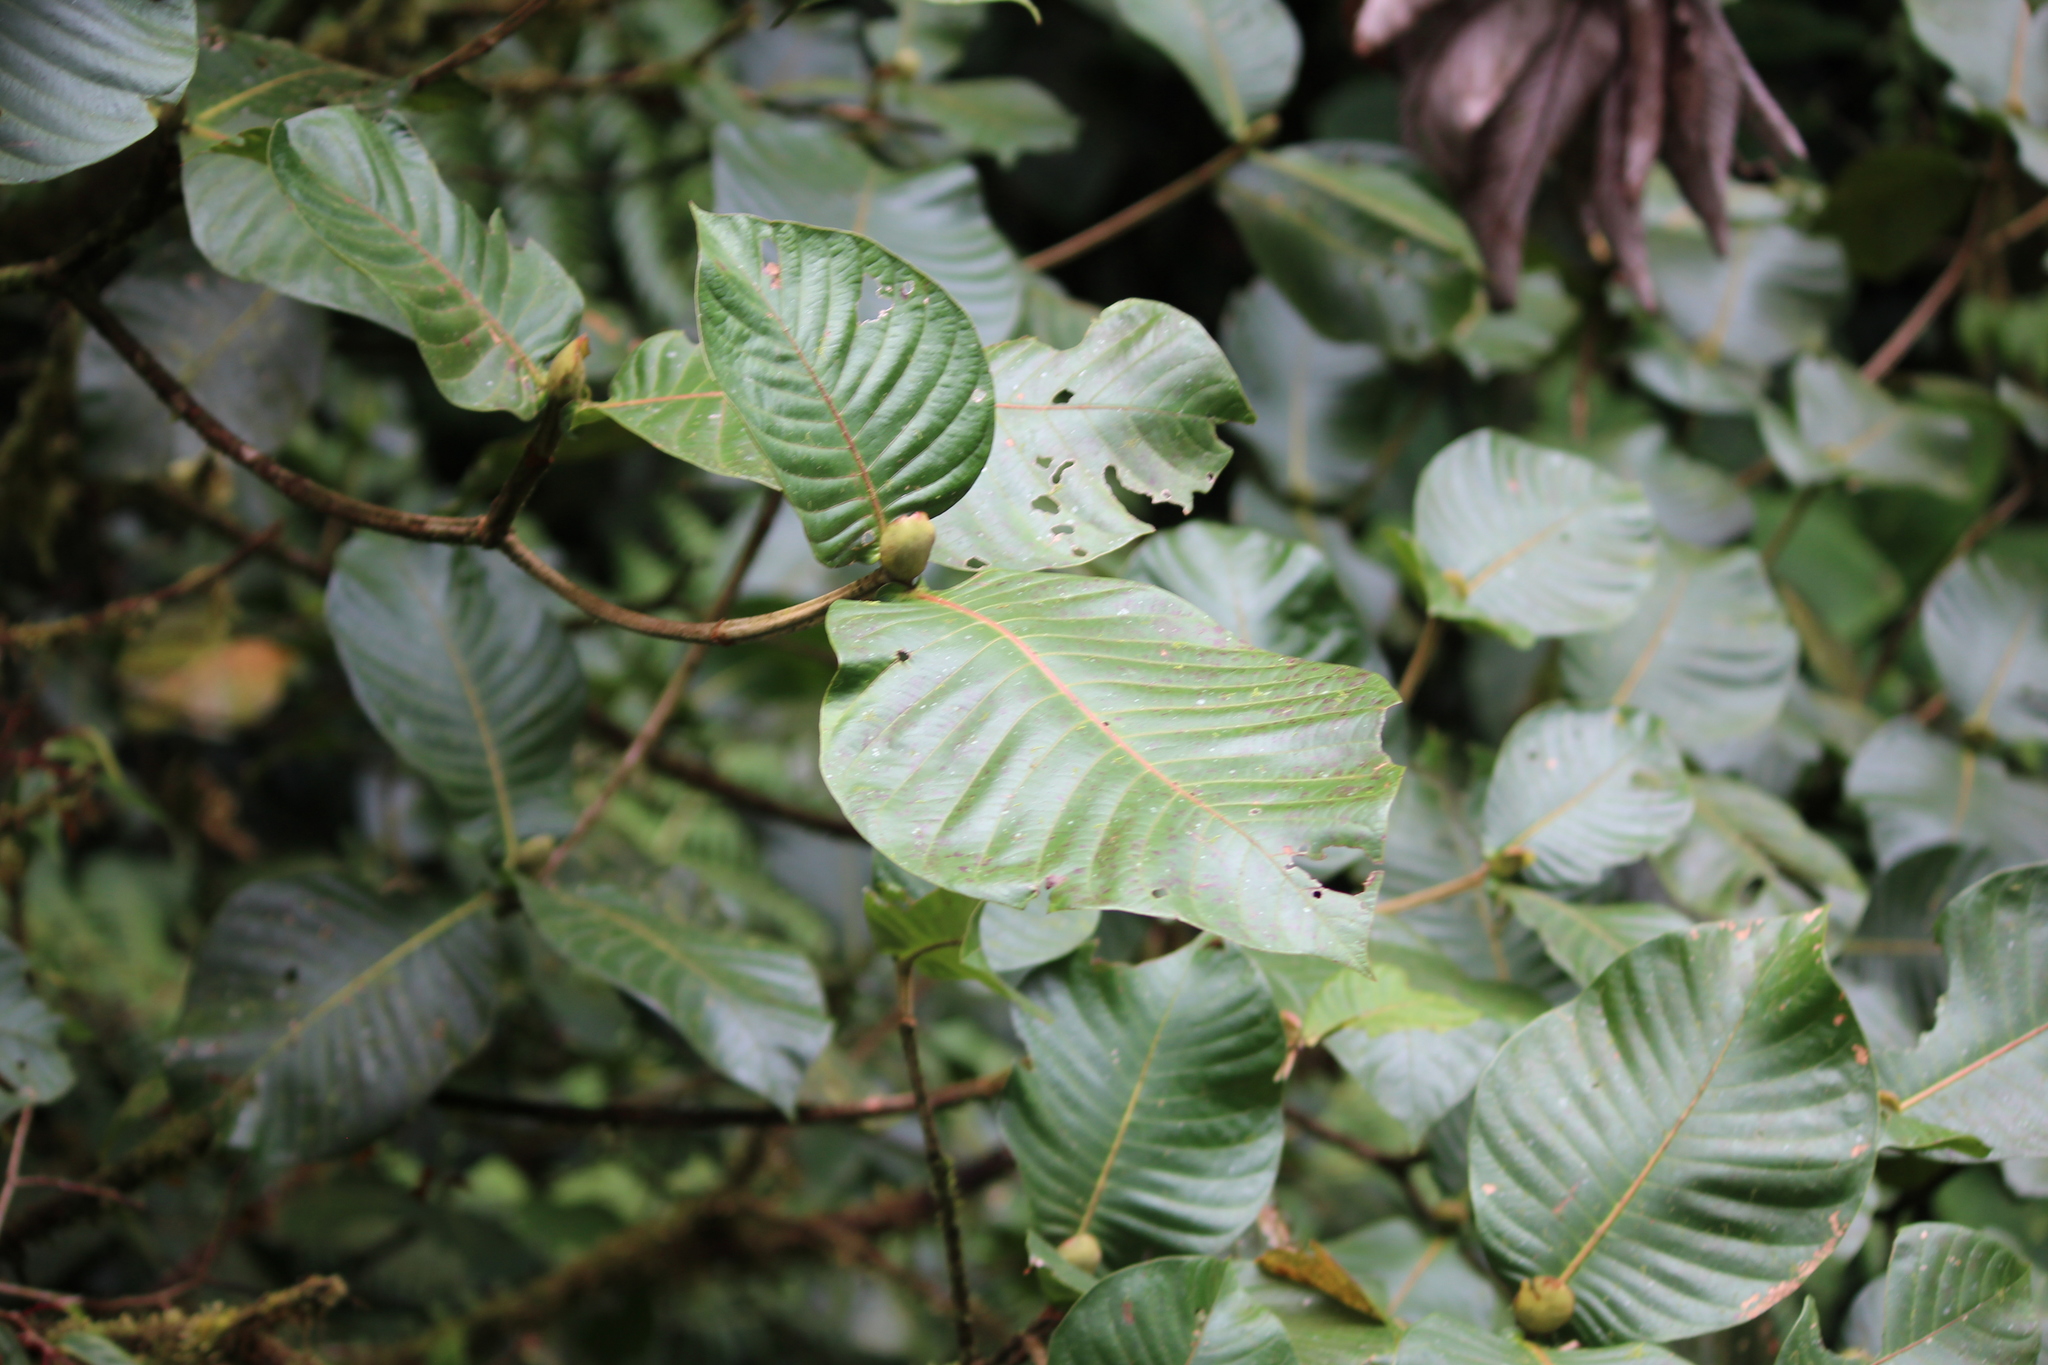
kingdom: Plantae
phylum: Tracheophyta
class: Magnoliopsida
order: Gentianales
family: Rubiaceae
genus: Elaeagia
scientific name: Elaeagia auriculata
